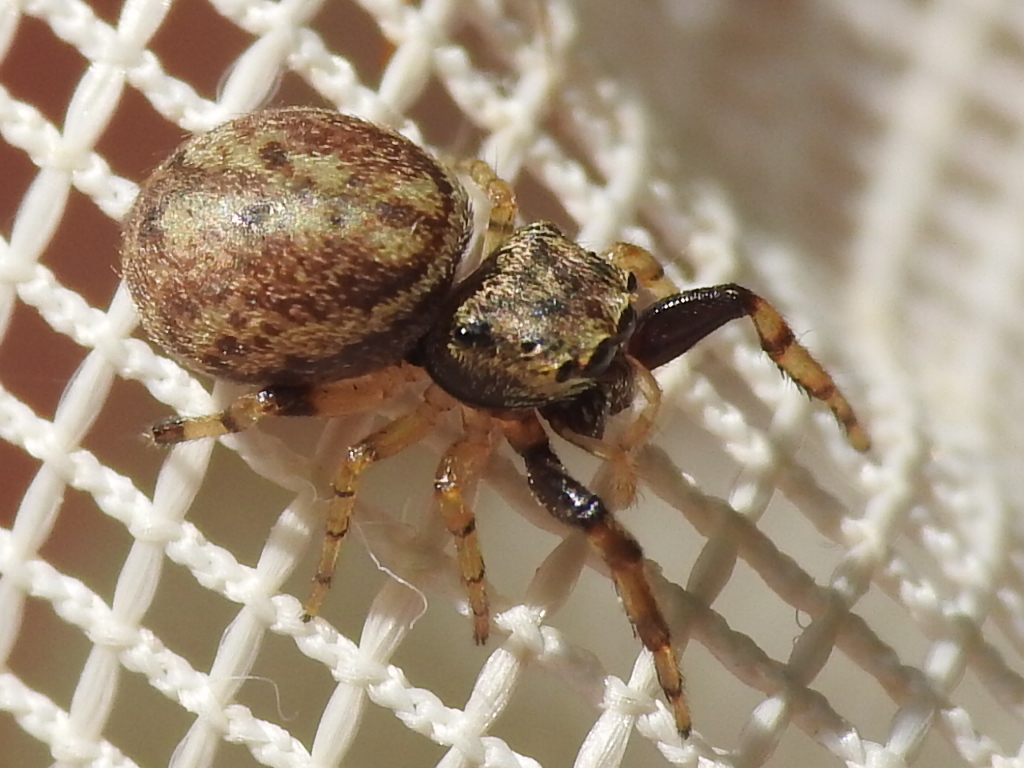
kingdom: Animalia
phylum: Arthropoda
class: Arachnida
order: Araneae
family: Salticidae
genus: Zygoballus
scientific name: Zygoballus rufipes
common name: Jumping spiders
